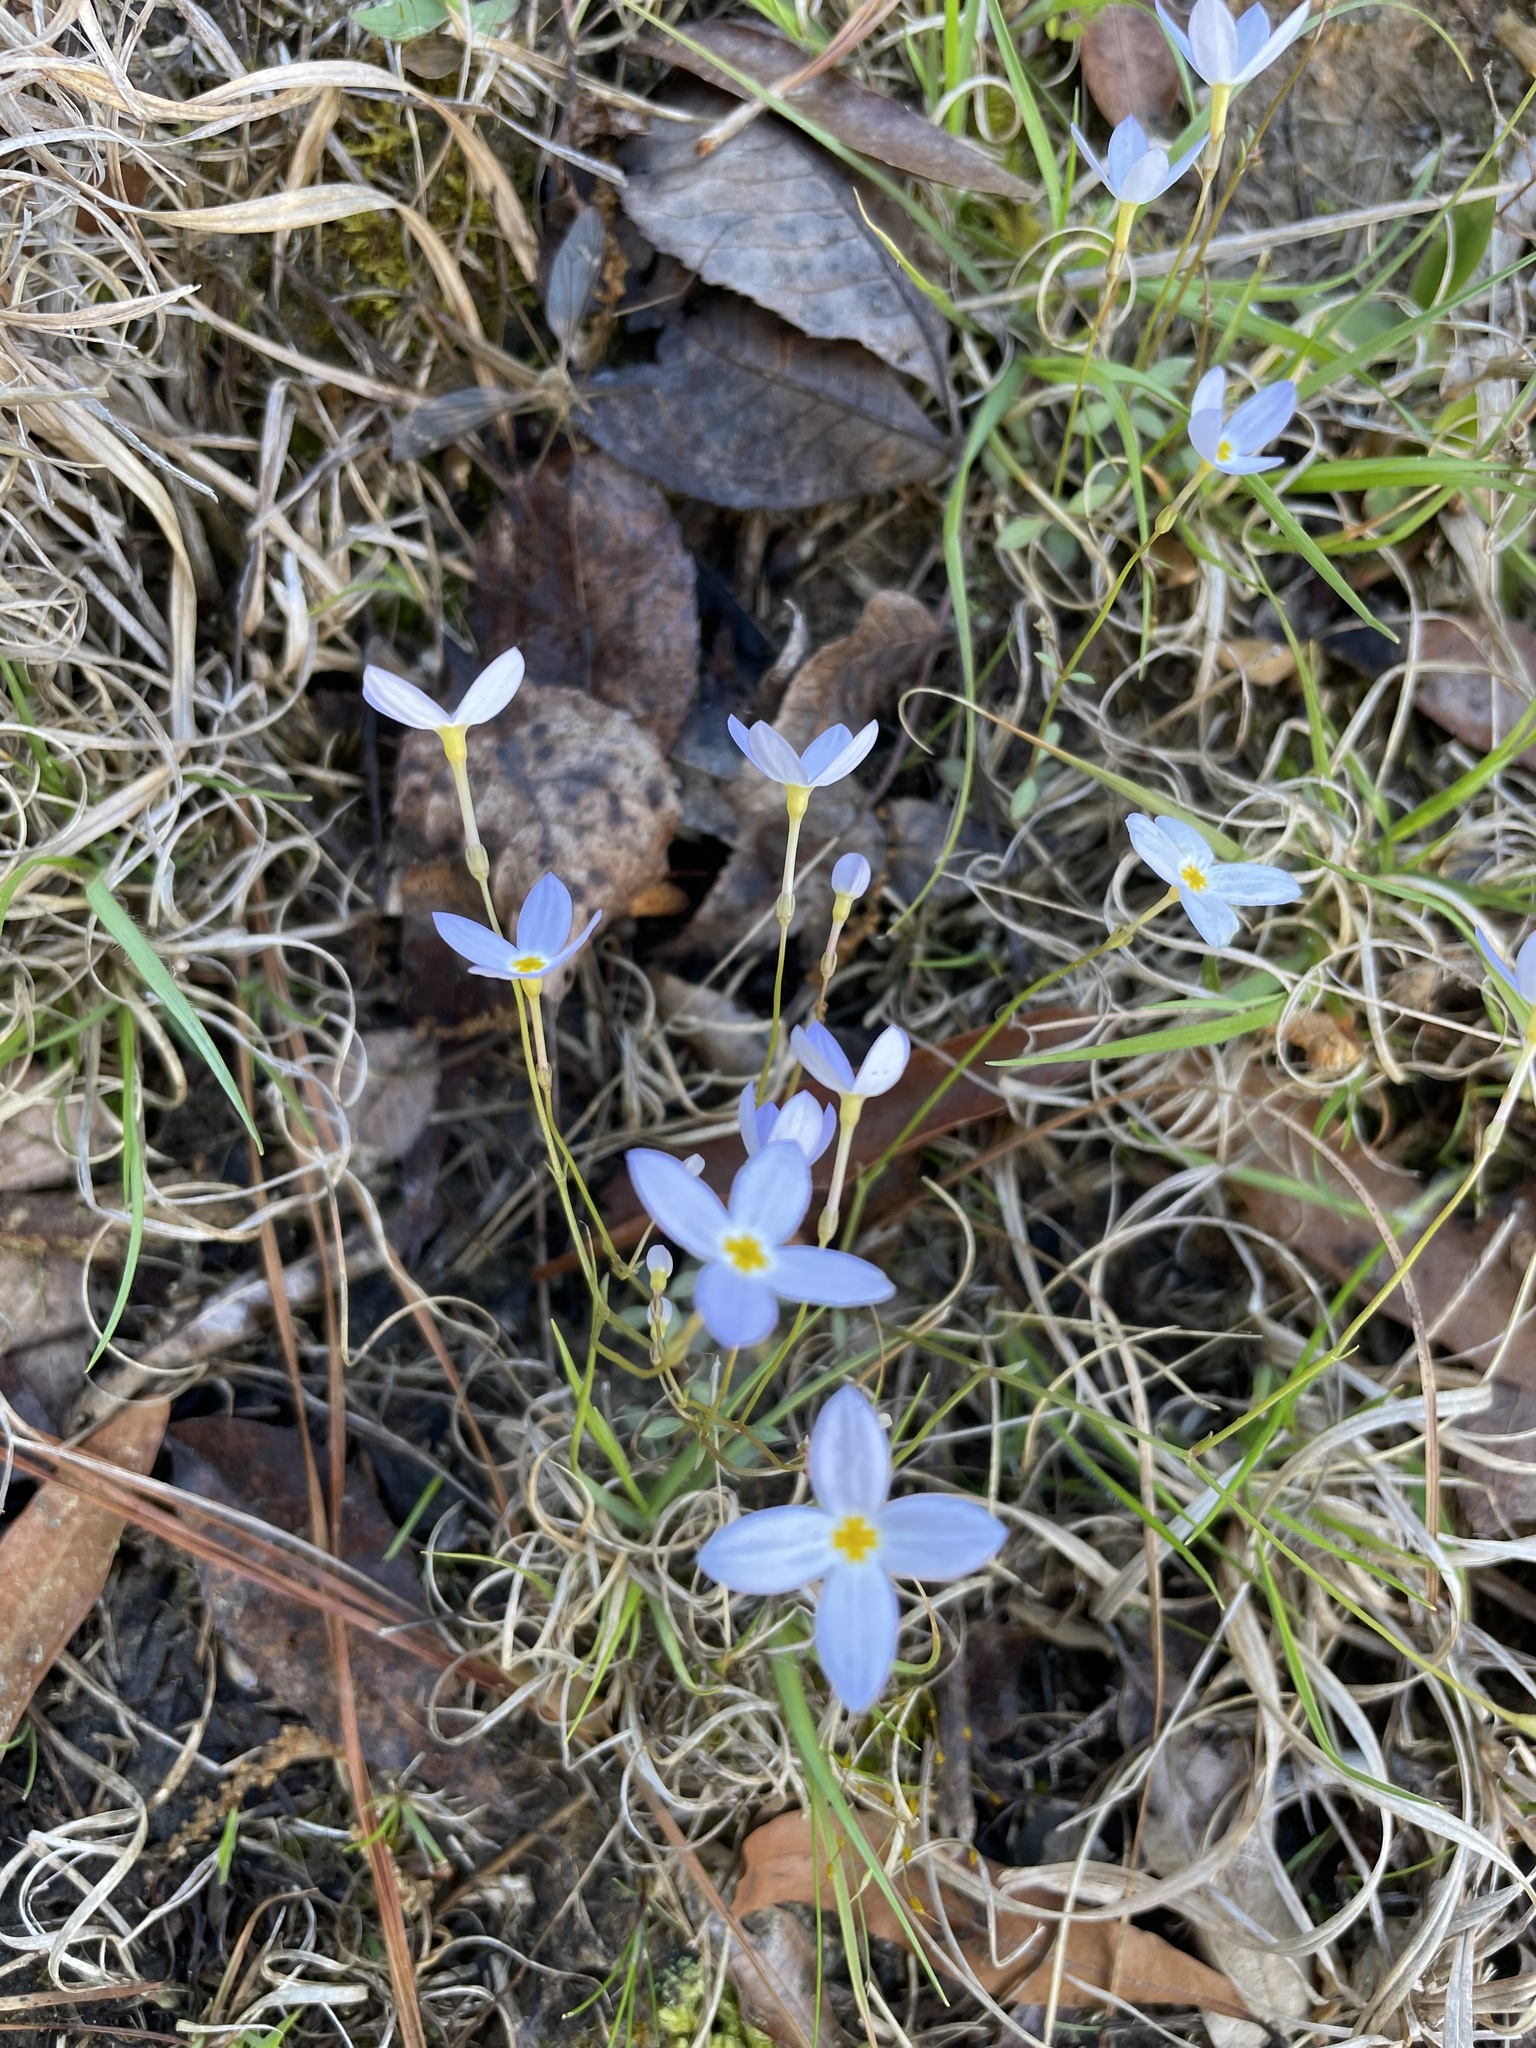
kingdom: Plantae
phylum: Tracheophyta
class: Magnoliopsida
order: Gentianales
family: Rubiaceae
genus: Houstonia
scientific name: Houstonia caerulea
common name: Bluets
